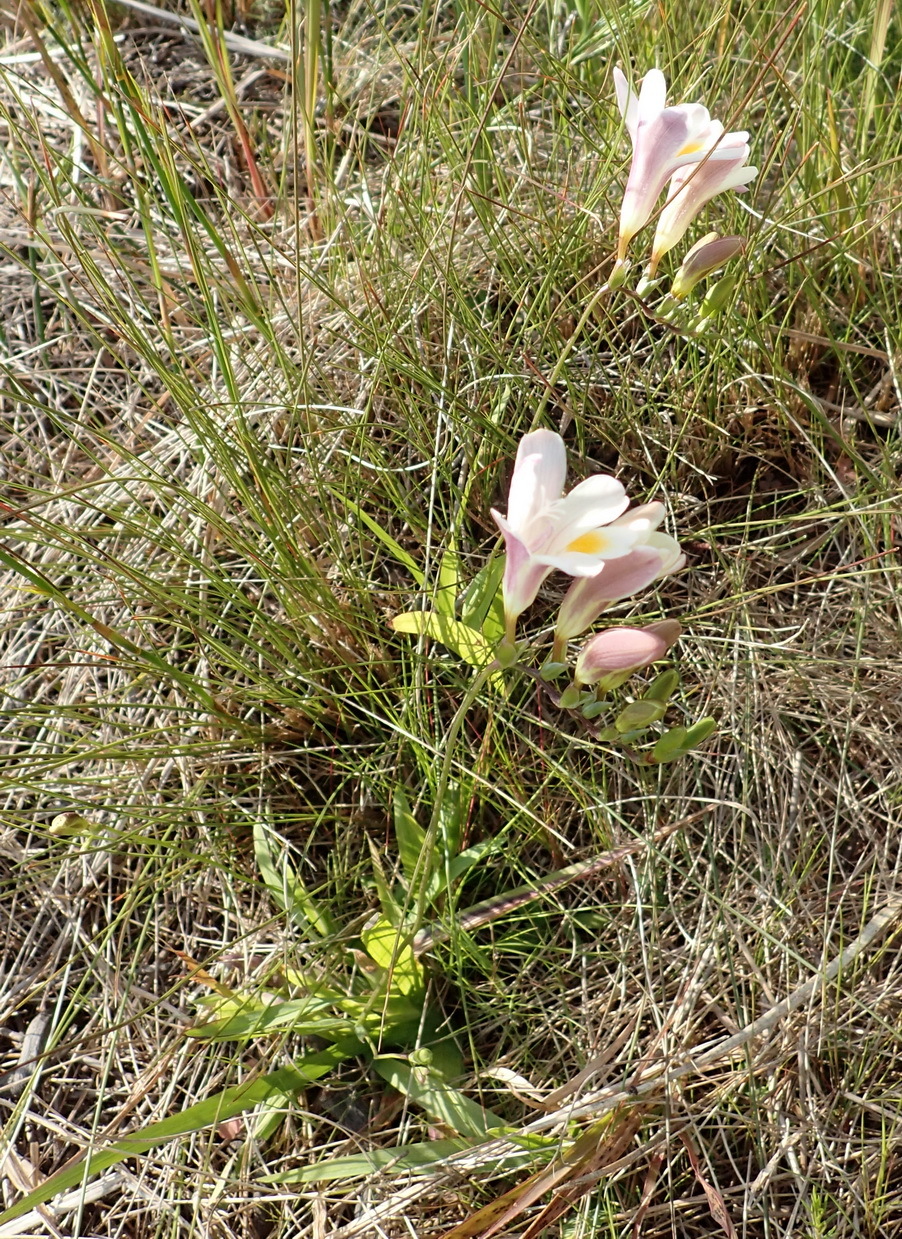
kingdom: Plantae
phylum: Tracheophyta
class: Liliopsida
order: Asparagales
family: Iridaceae
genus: Freesia
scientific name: Freesia leichtlinii
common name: Freesia
